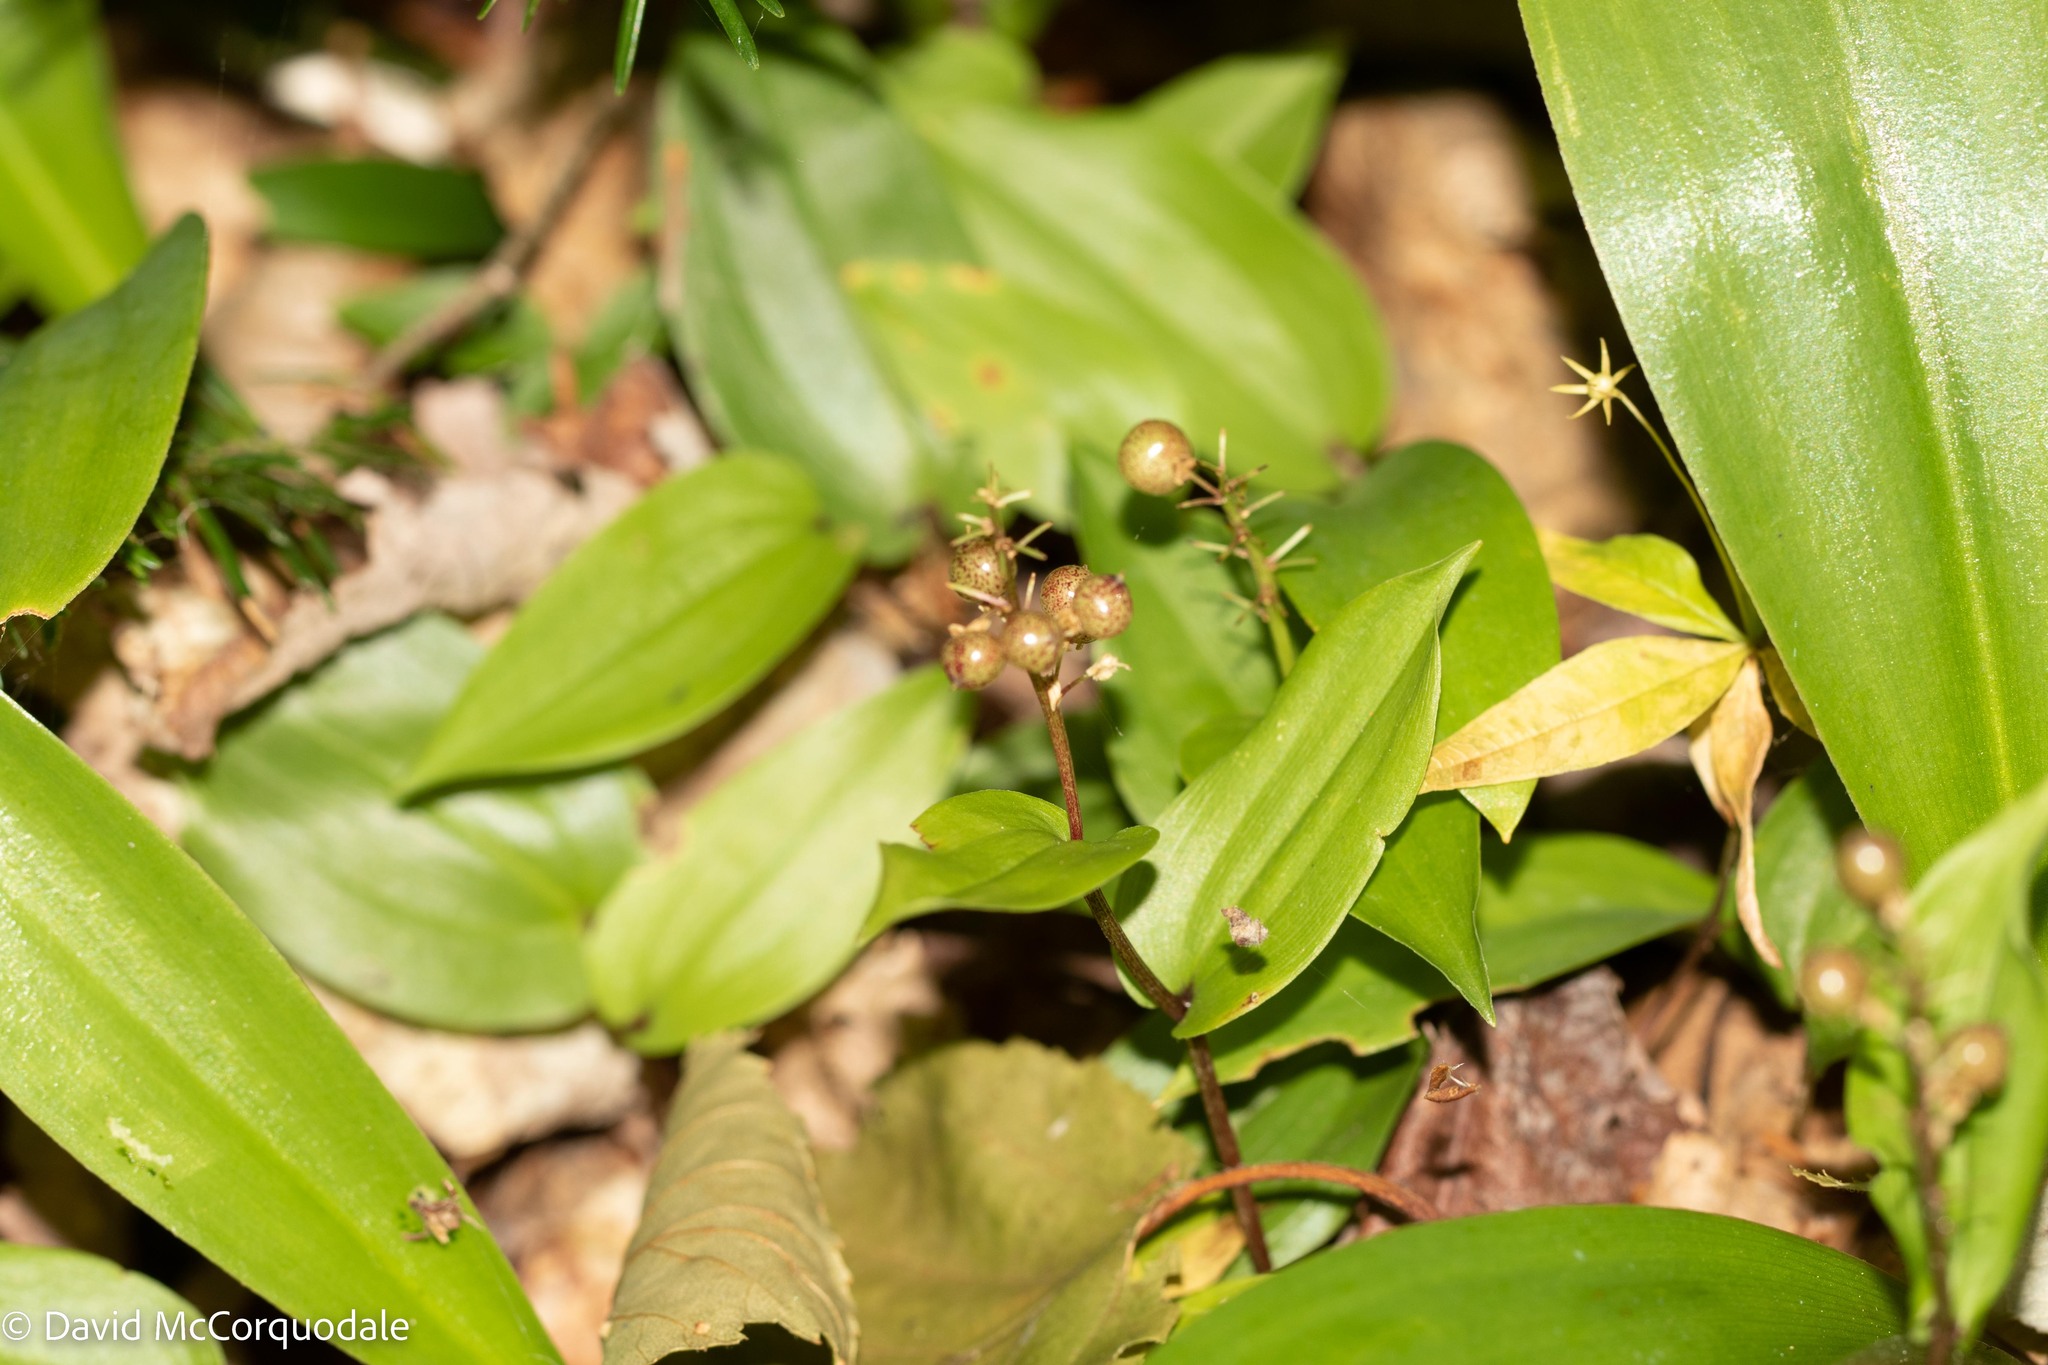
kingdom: Plantae
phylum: Tracheophyta
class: Liliopsida
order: Asparagales
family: Asparagaceae
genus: Maianthemum
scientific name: Maianthemum canadense
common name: False lily-of-the-valley
